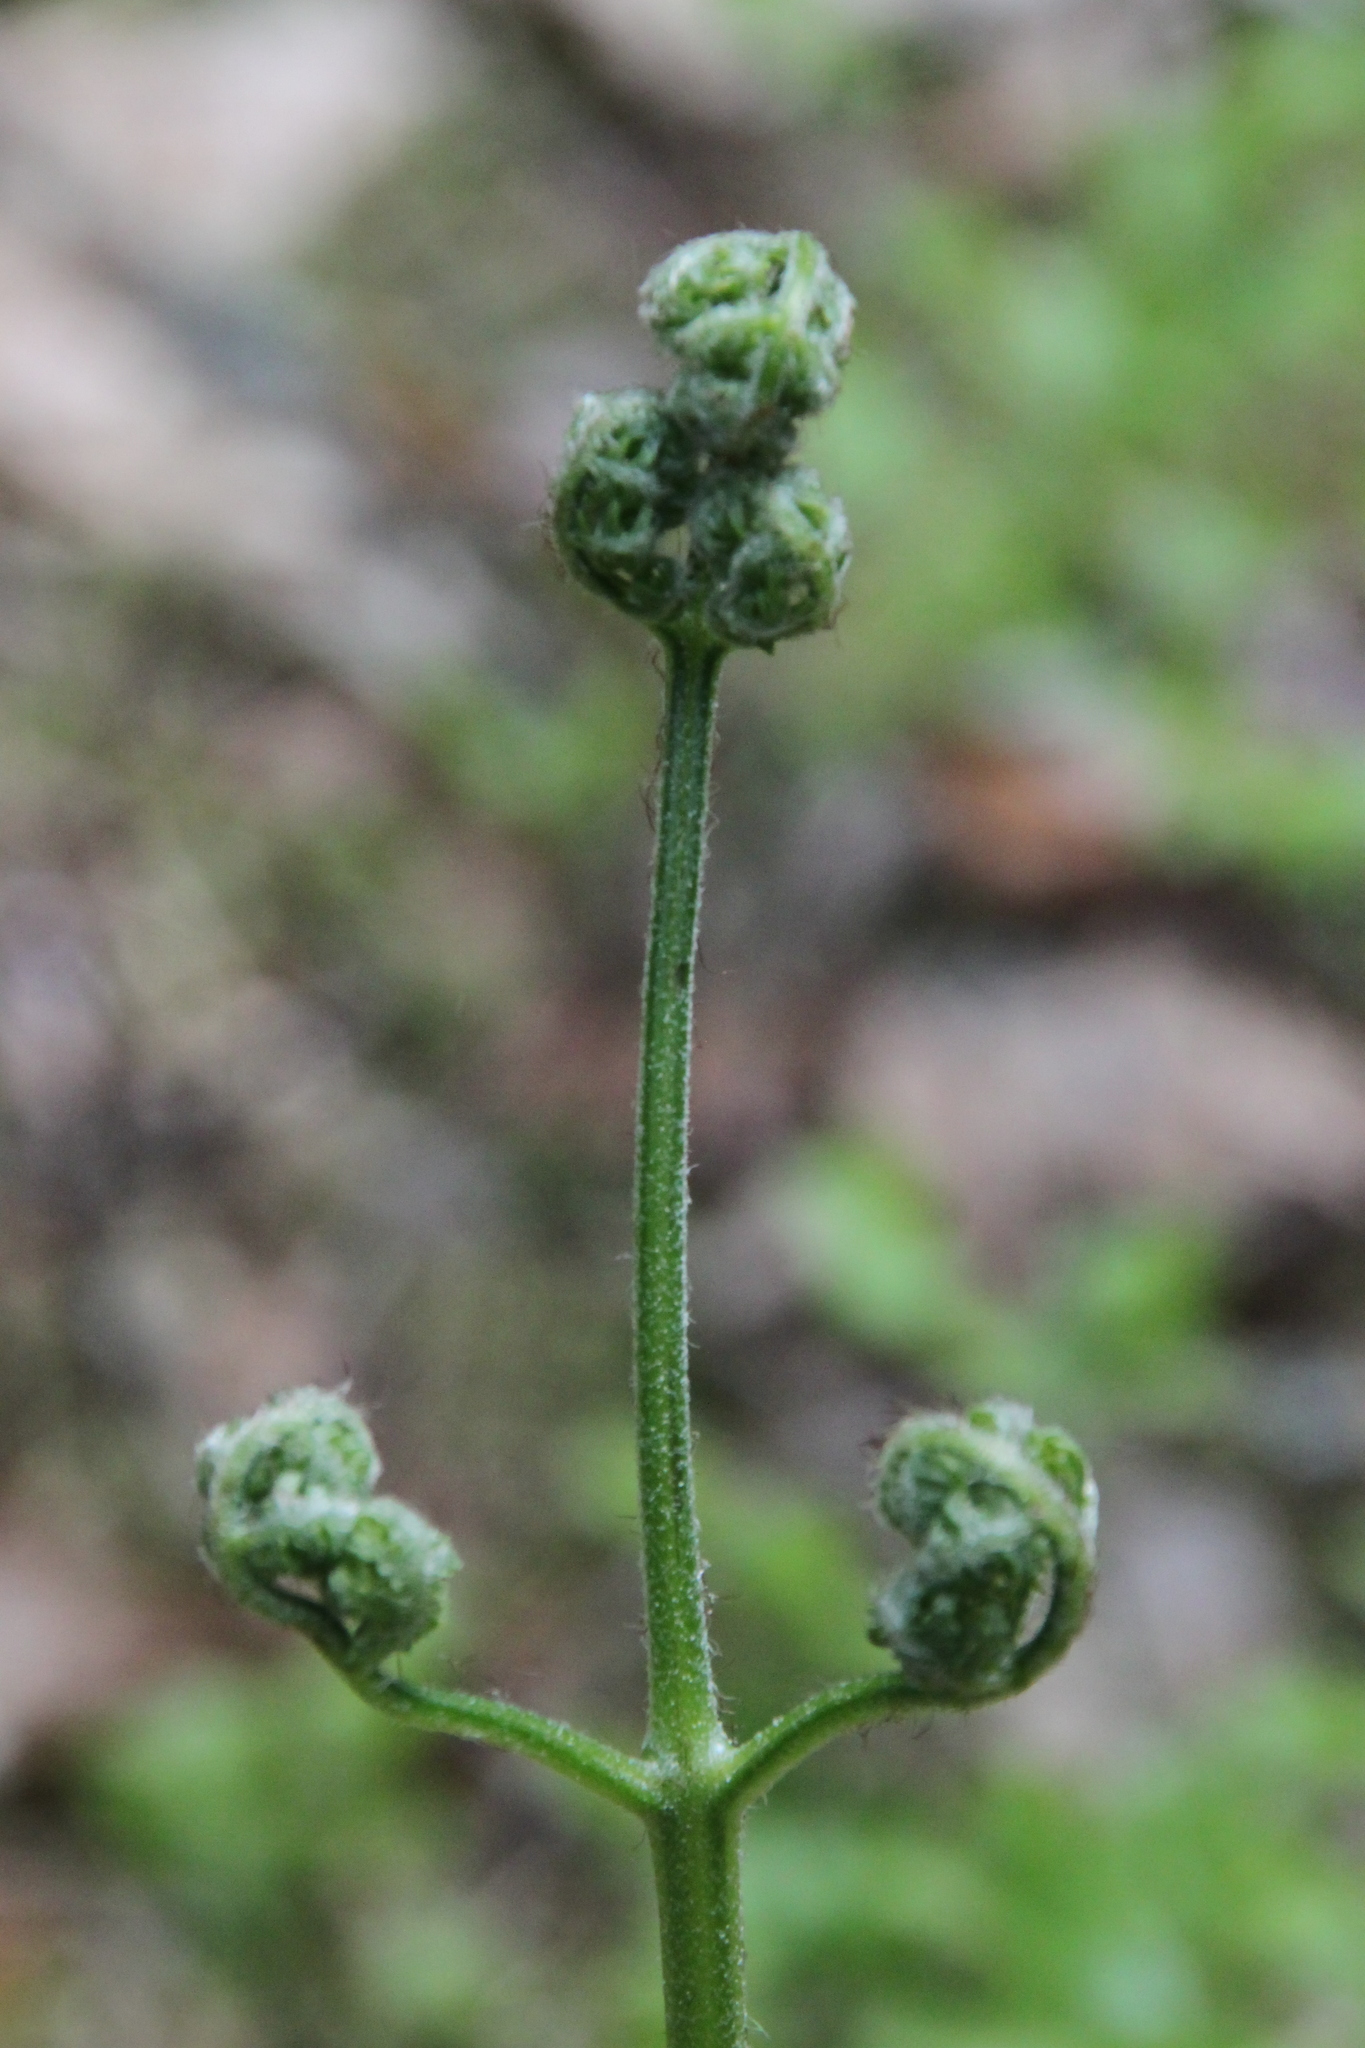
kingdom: Plantae
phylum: Tracheophyta
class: Polypodiopsida
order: Polypodiales
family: Dennstaedtiaceae
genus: Pteridium
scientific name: Pteridium aquilinum
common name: Bracken
